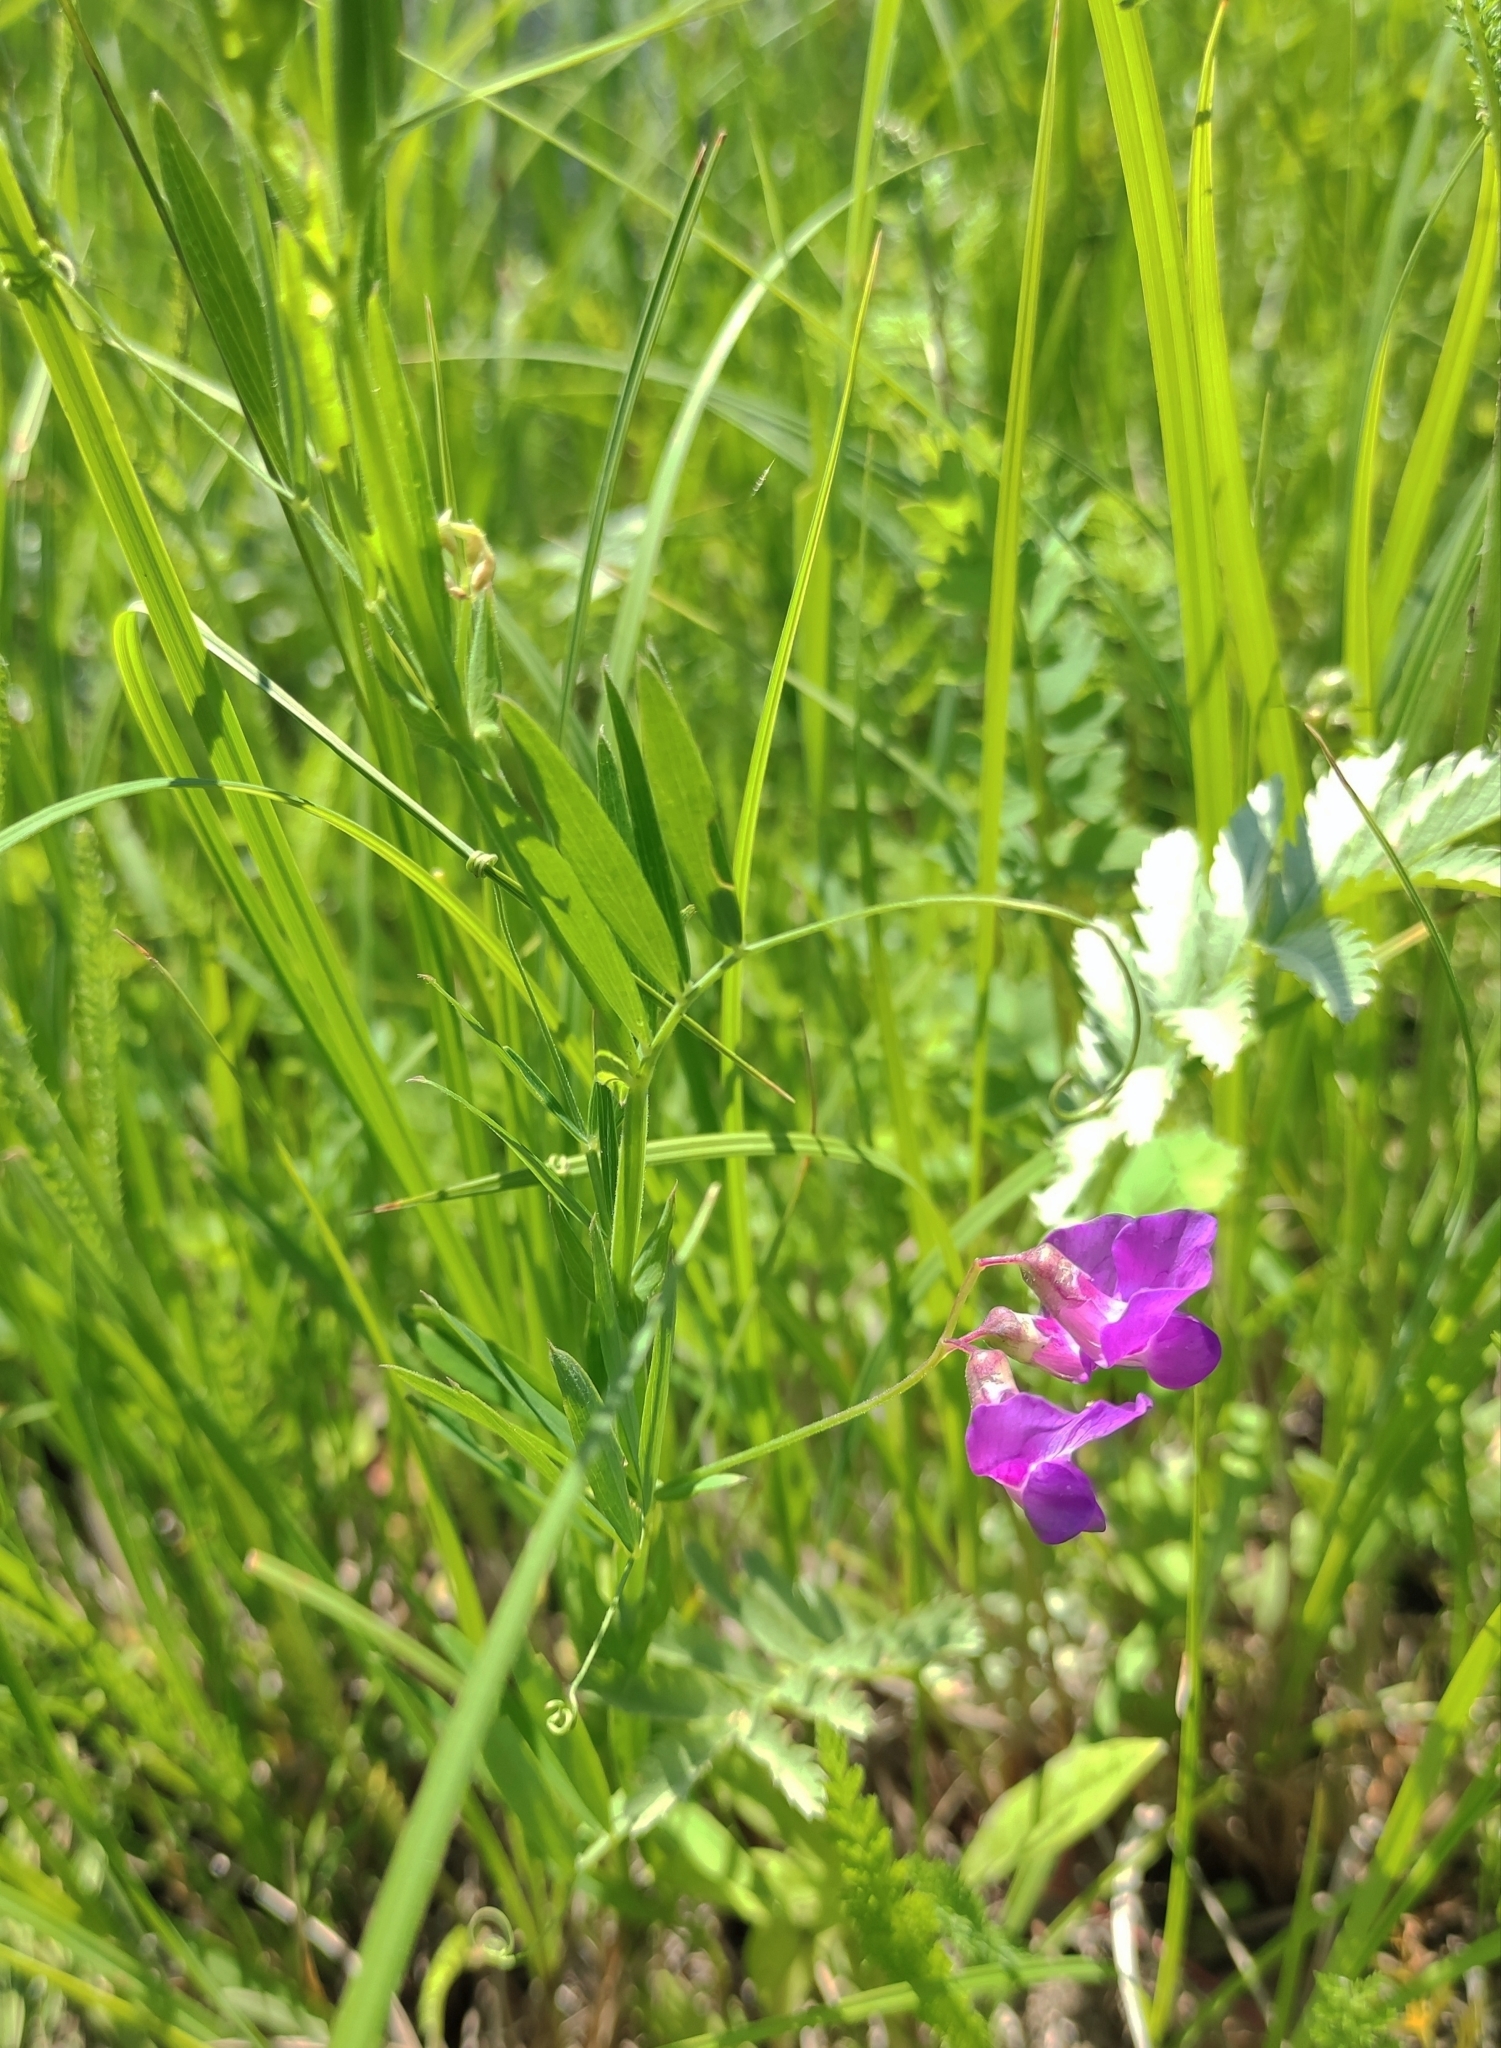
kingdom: Plantae
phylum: Tracheophyta
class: Magnoliopsida
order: Fabales
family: Fabaceae
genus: Lathyrus
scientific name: Lathyrus palustris
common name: Marsh pea
